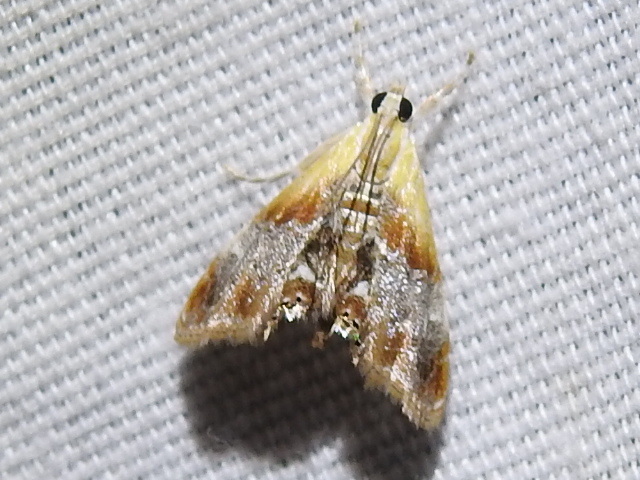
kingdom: Animalia
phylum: Arthropoda
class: Insecta
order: Lepidoptera
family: Crambidae
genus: Dicymolomia
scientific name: Dicymolomia julianalis
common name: Julia's dicymolomia moth
